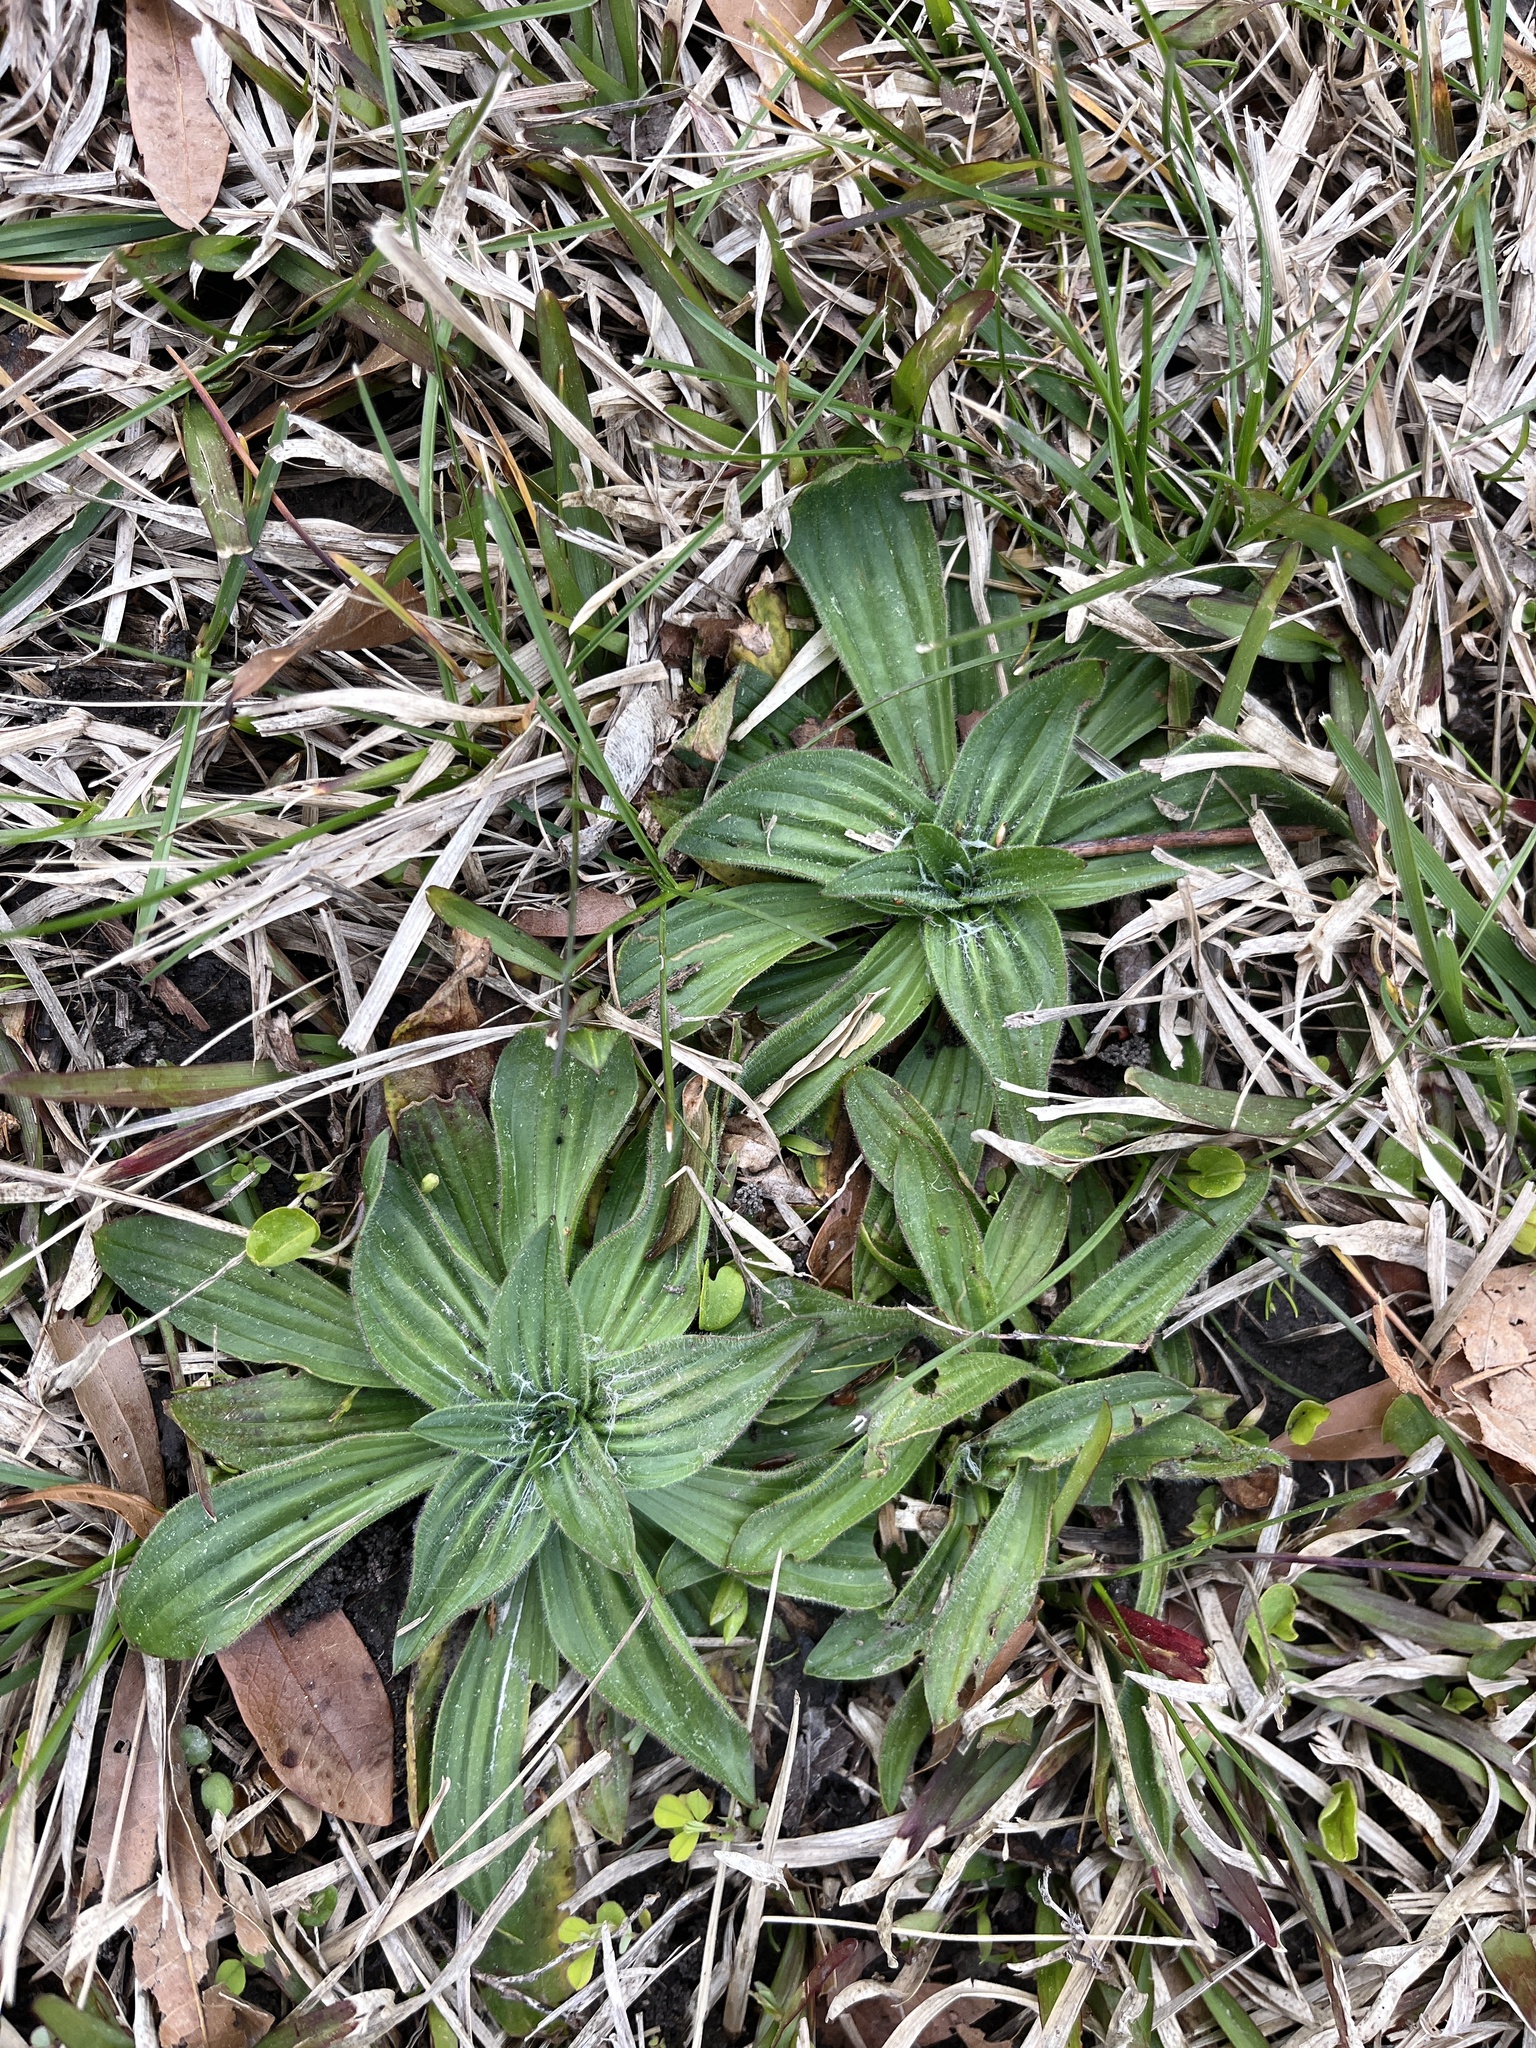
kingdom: Plantae
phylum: Tracheophyta
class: Magnoliopsida
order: Lamiales
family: Plantaginaceae
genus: Plantago
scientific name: Plantago lanceolata
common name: Ribwort plantain
